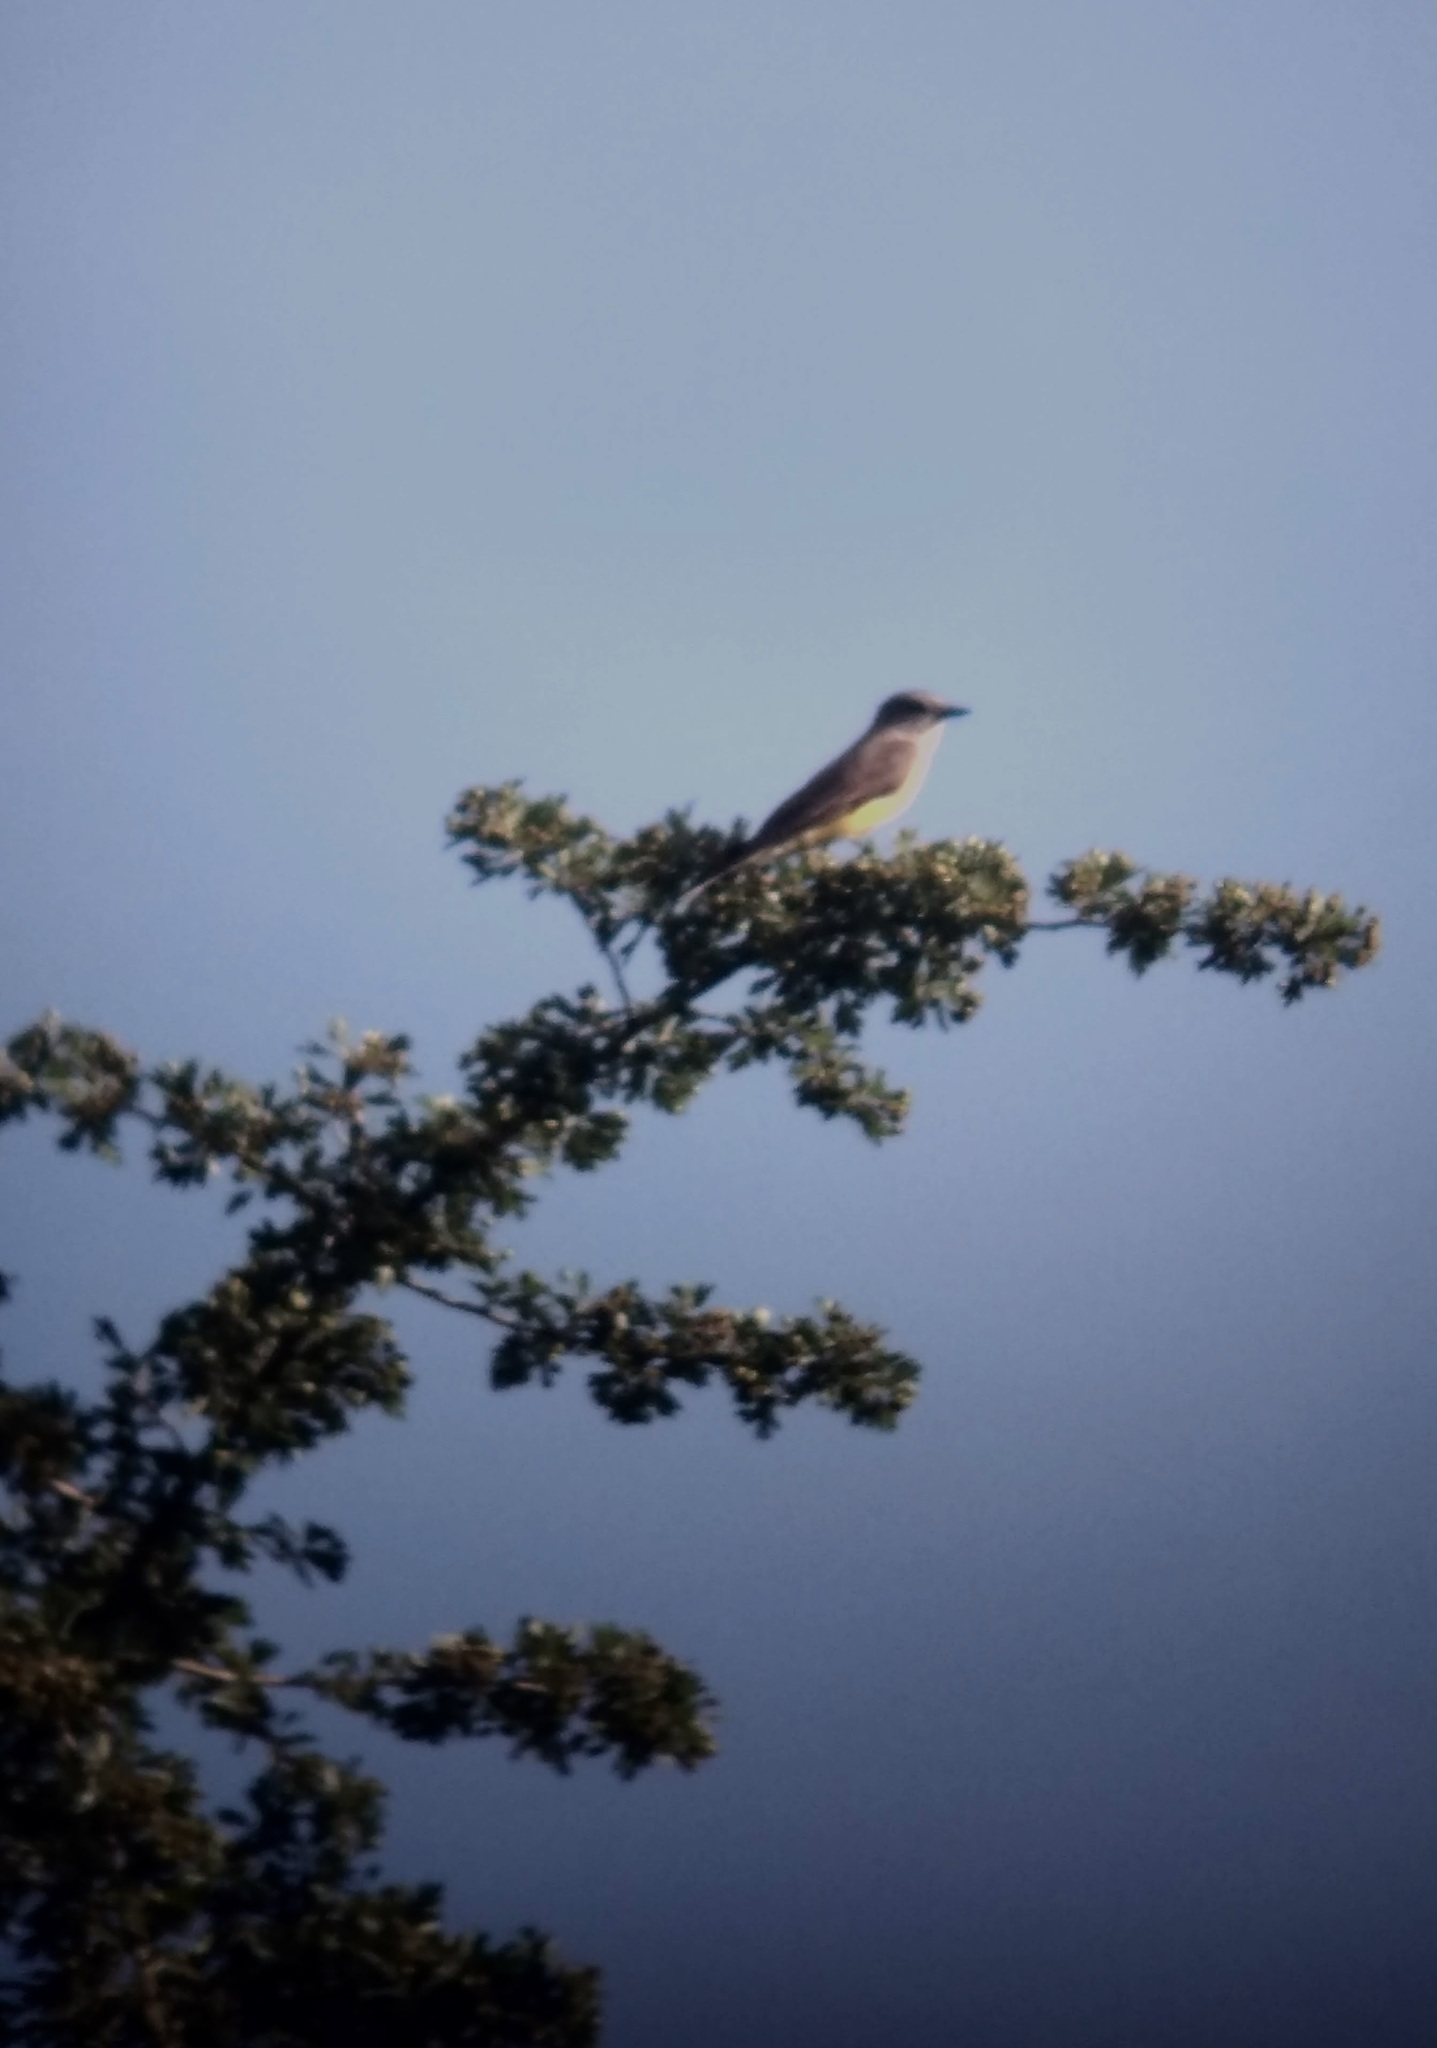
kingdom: Animalia
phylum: Chordata
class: Aves
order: Passeriformes
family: Tyrannidae
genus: Tyrannus
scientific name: Tyrannus verticalis
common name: Western kingbird
